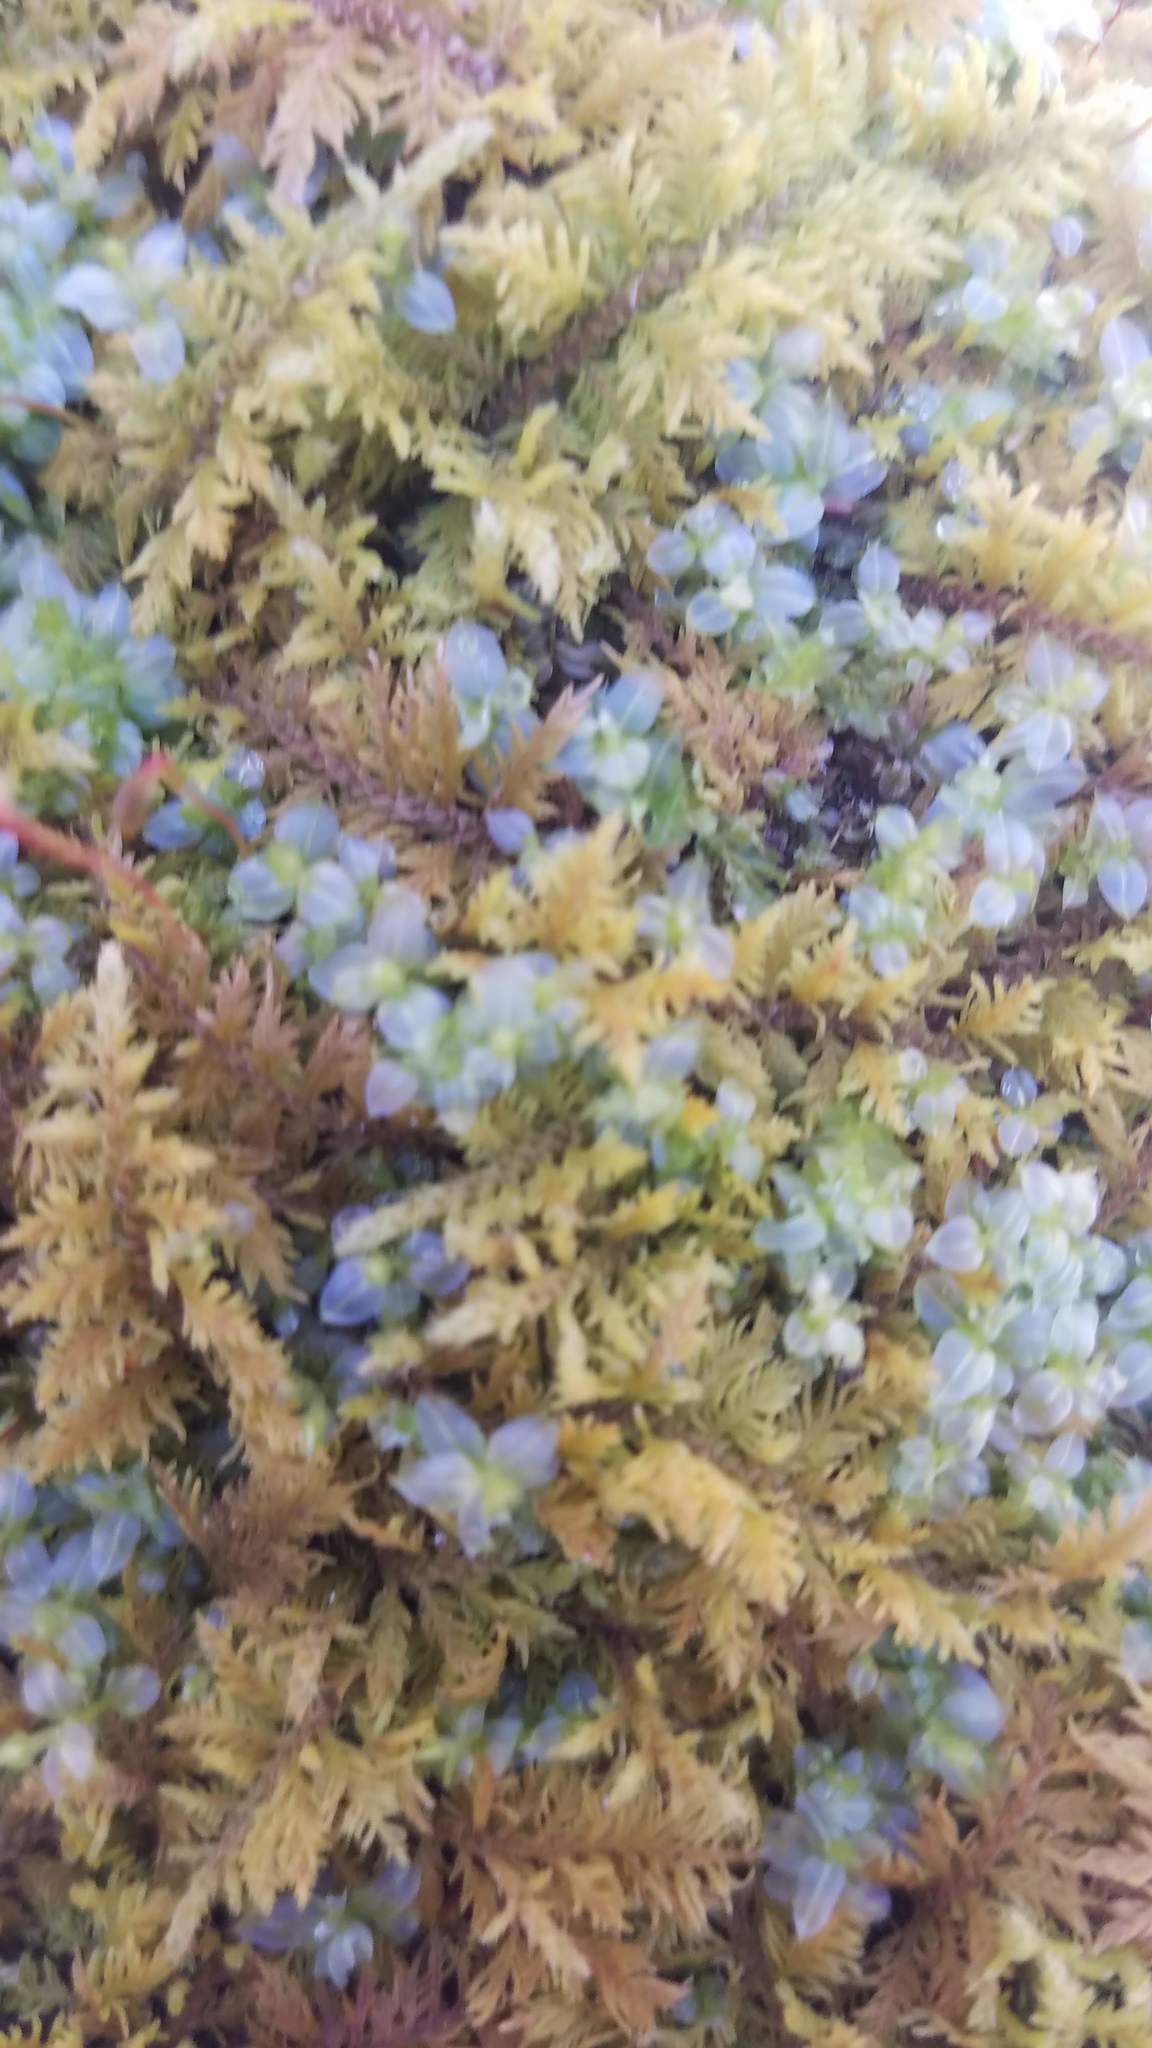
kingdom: Plantae
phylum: Bryophyta
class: Bryopsida
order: Bryales
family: Mniaceae
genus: Plagiomnium
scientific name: Plagiomnium cuspidatum
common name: Woodsy leafy moss
